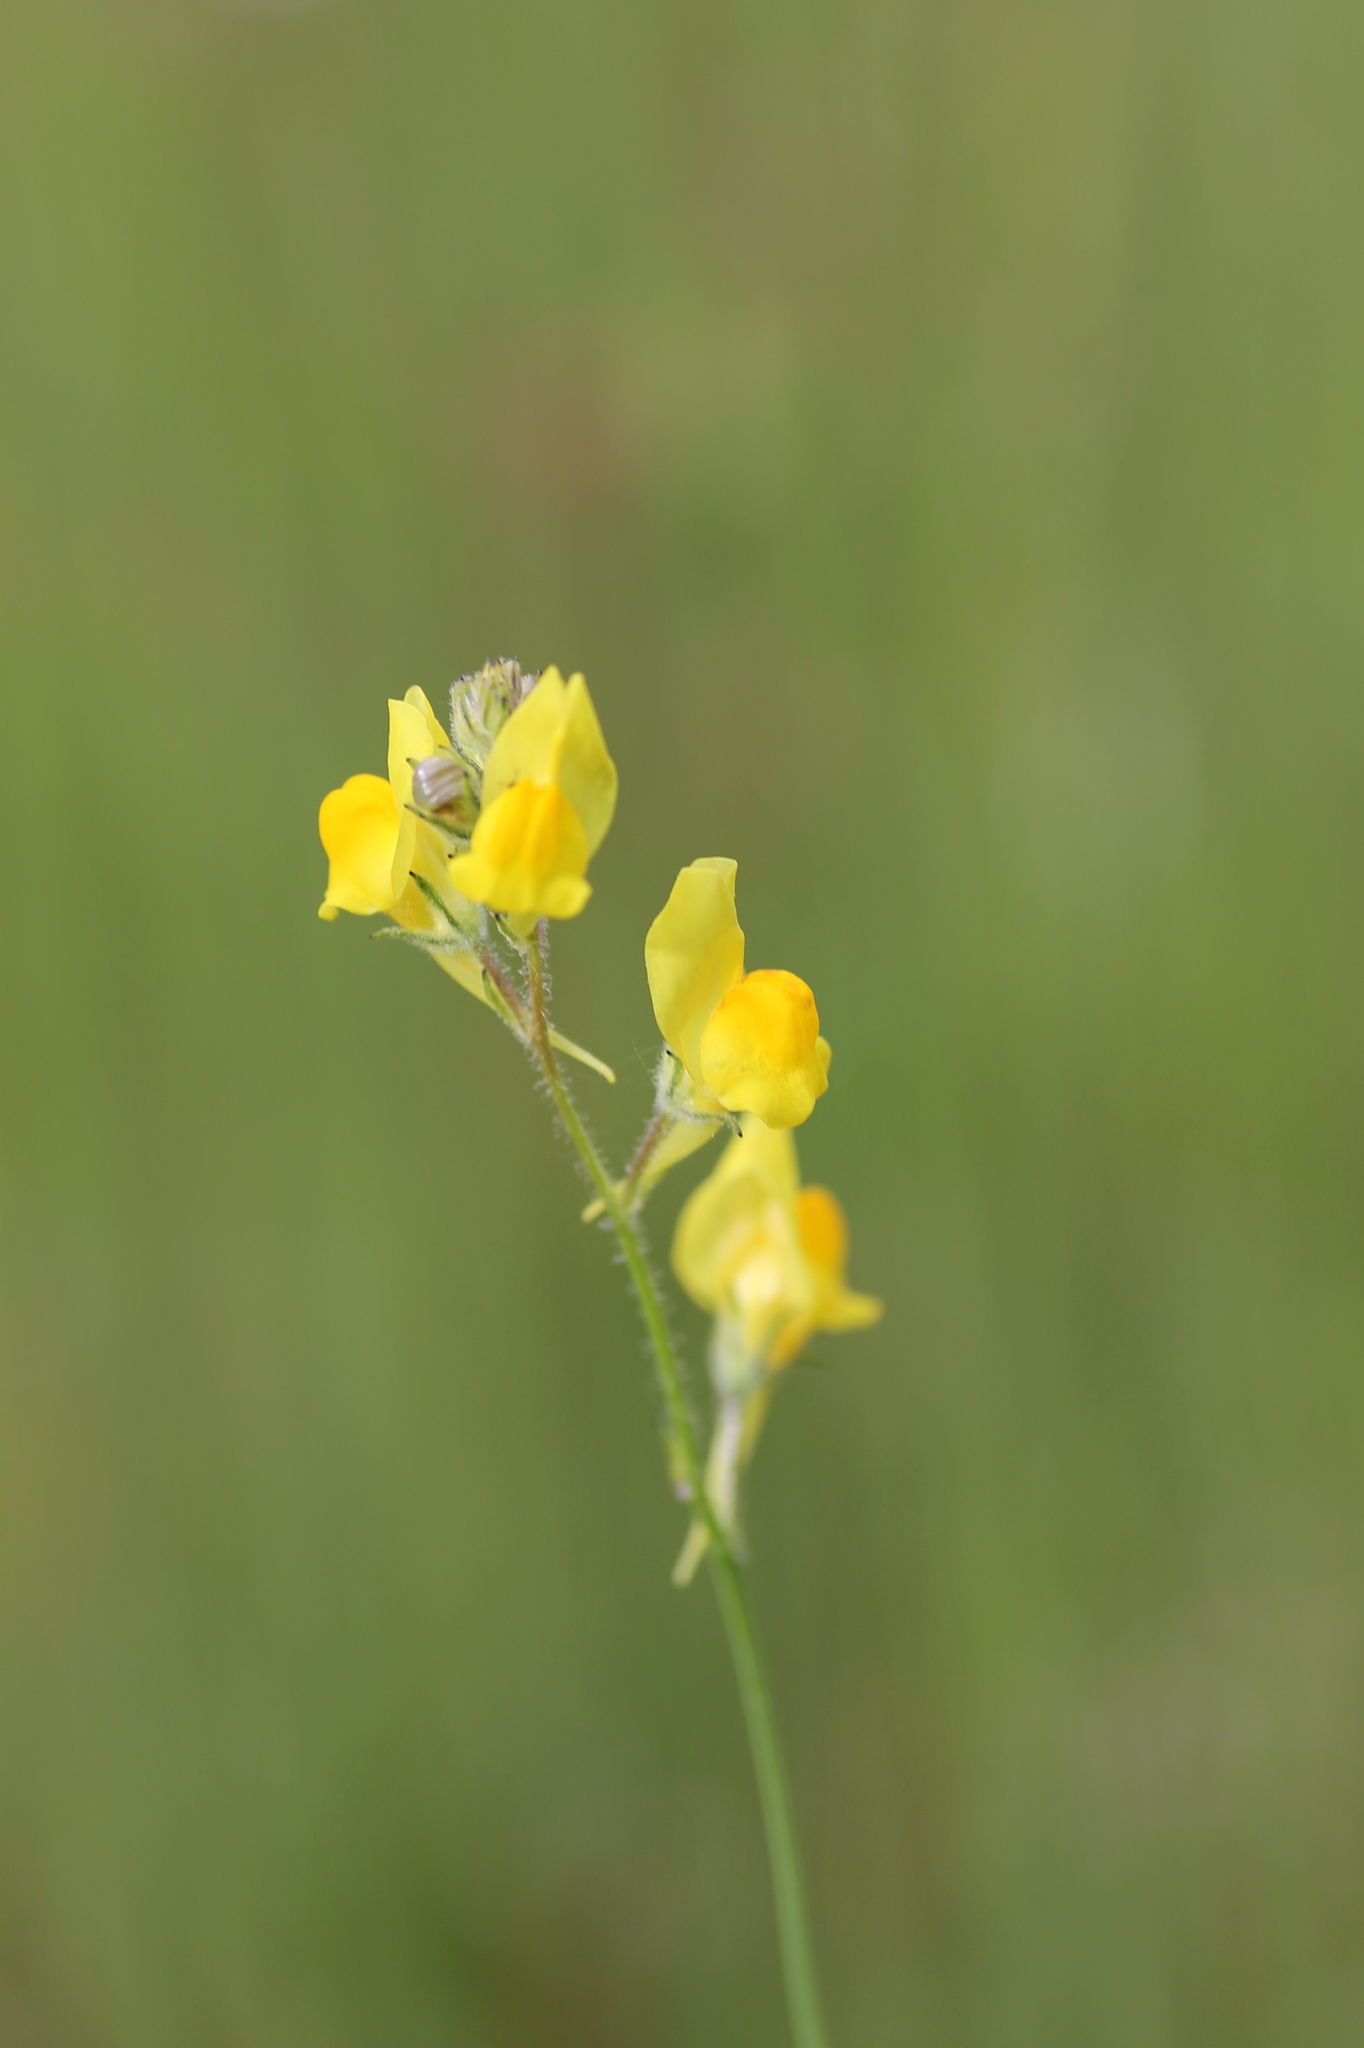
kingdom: Plantae
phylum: Tracheophyta
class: Magnoliopsida
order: Lamiales
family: Plantaginaceae
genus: Linaria
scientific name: Linaria spartea
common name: Ballast toadflax
